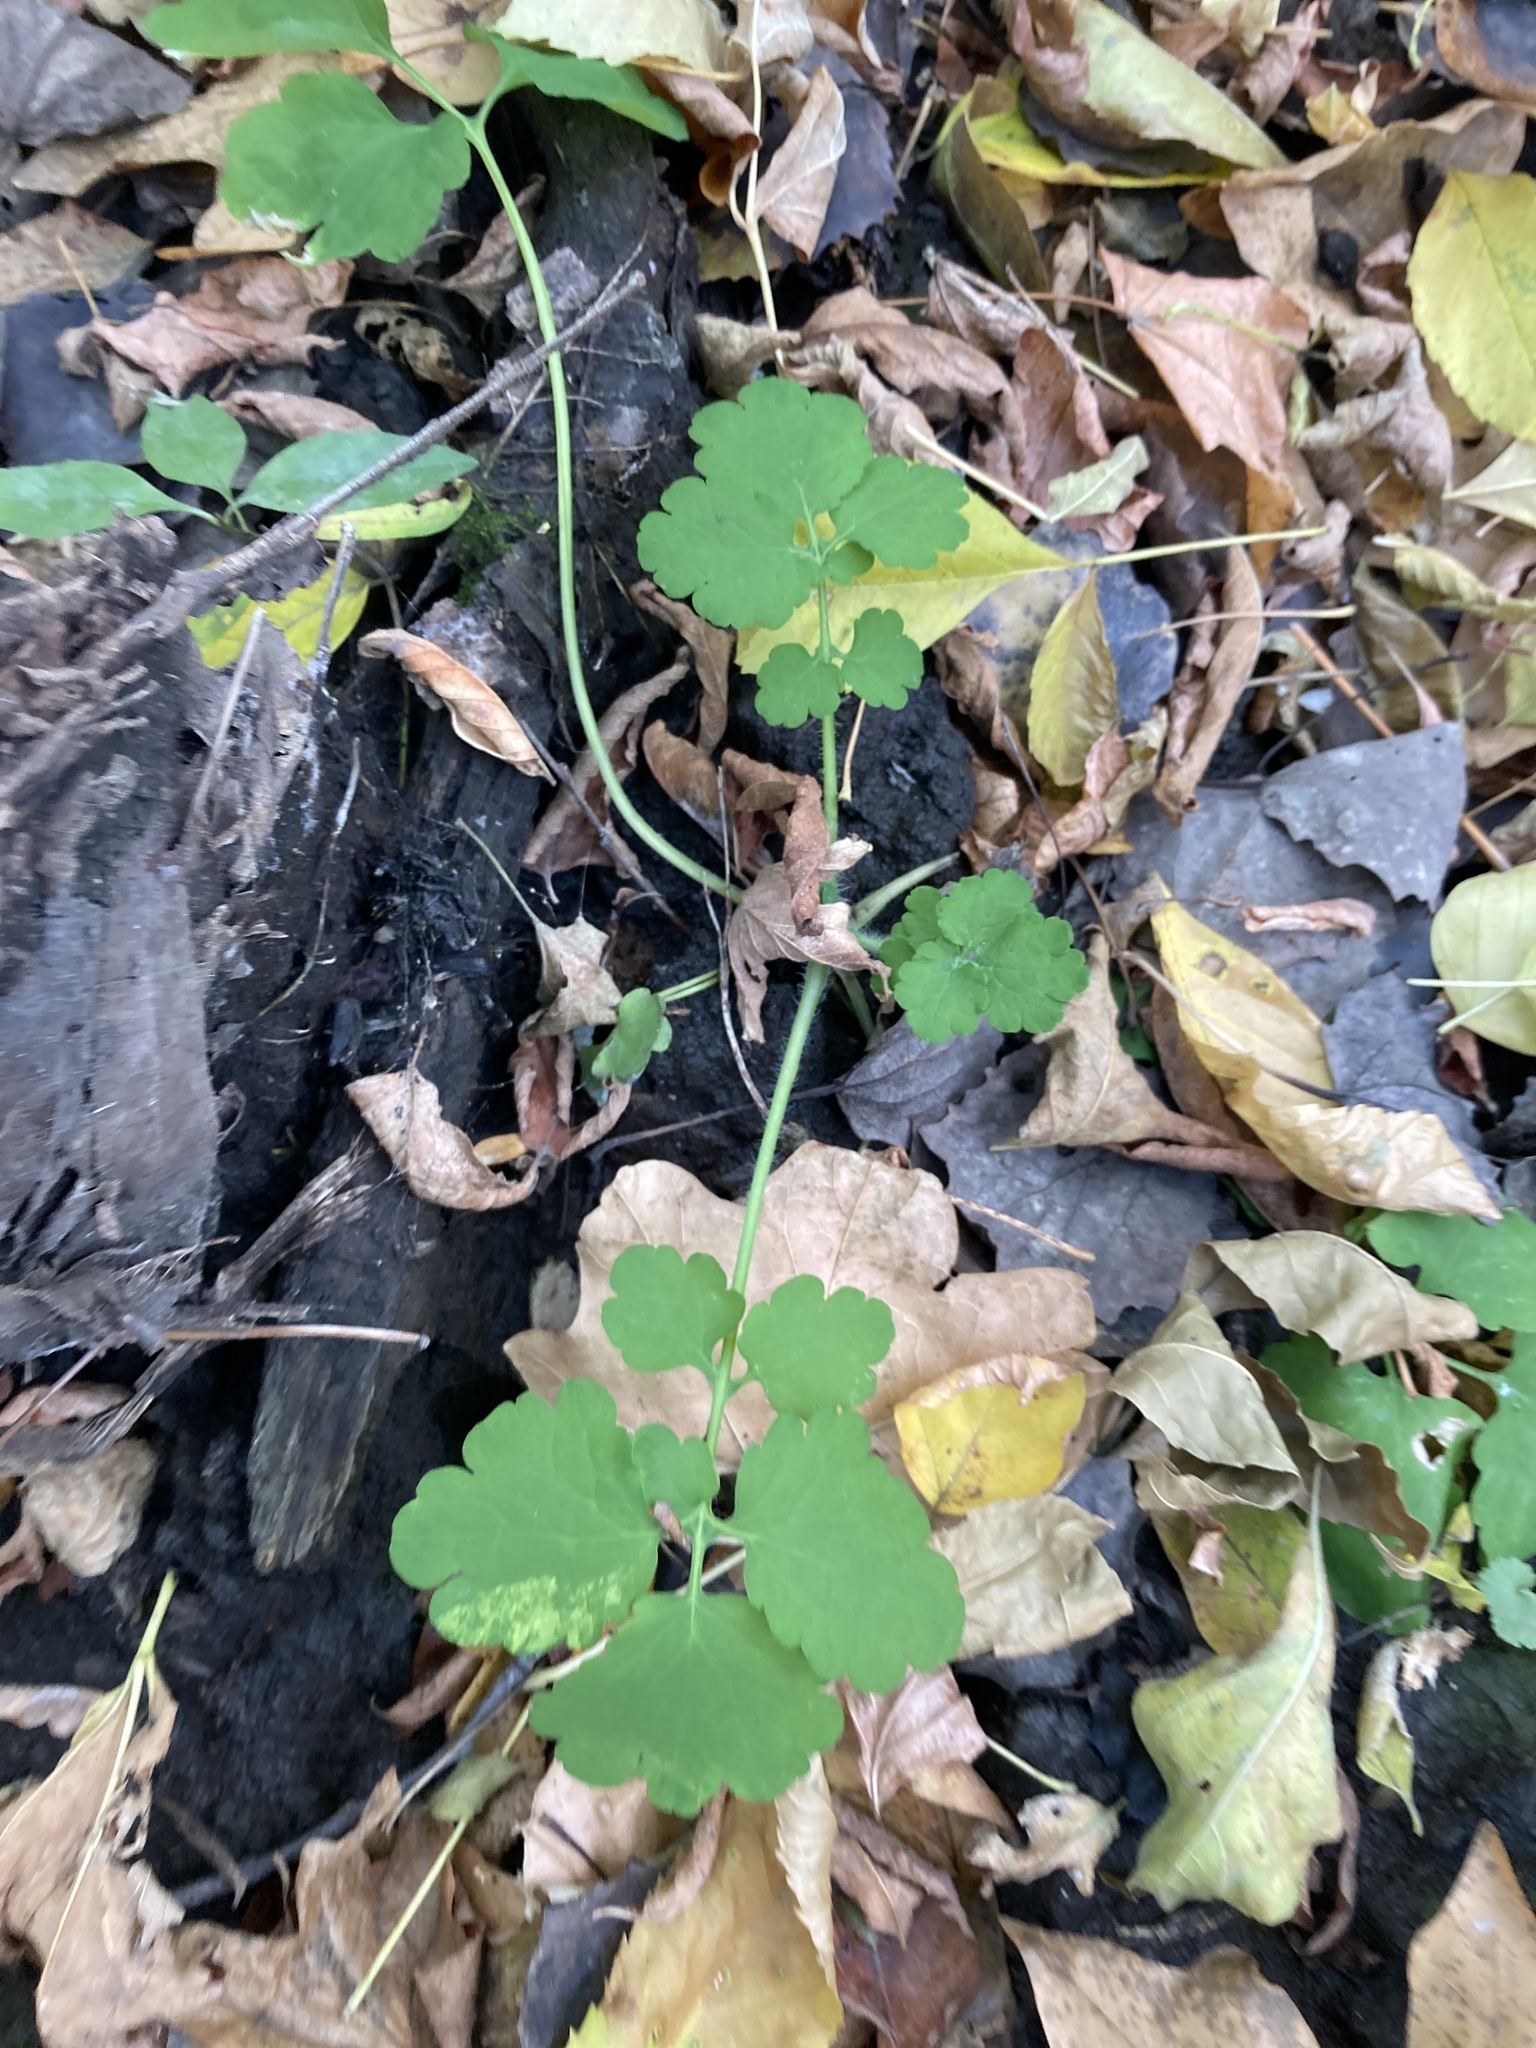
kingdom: Plantae
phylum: Tracheophyta
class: Magnoliopsida
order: Ranunculales
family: Papaveraceae
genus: Chelidonium
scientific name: Chelidonium majus
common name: Greater celandine
